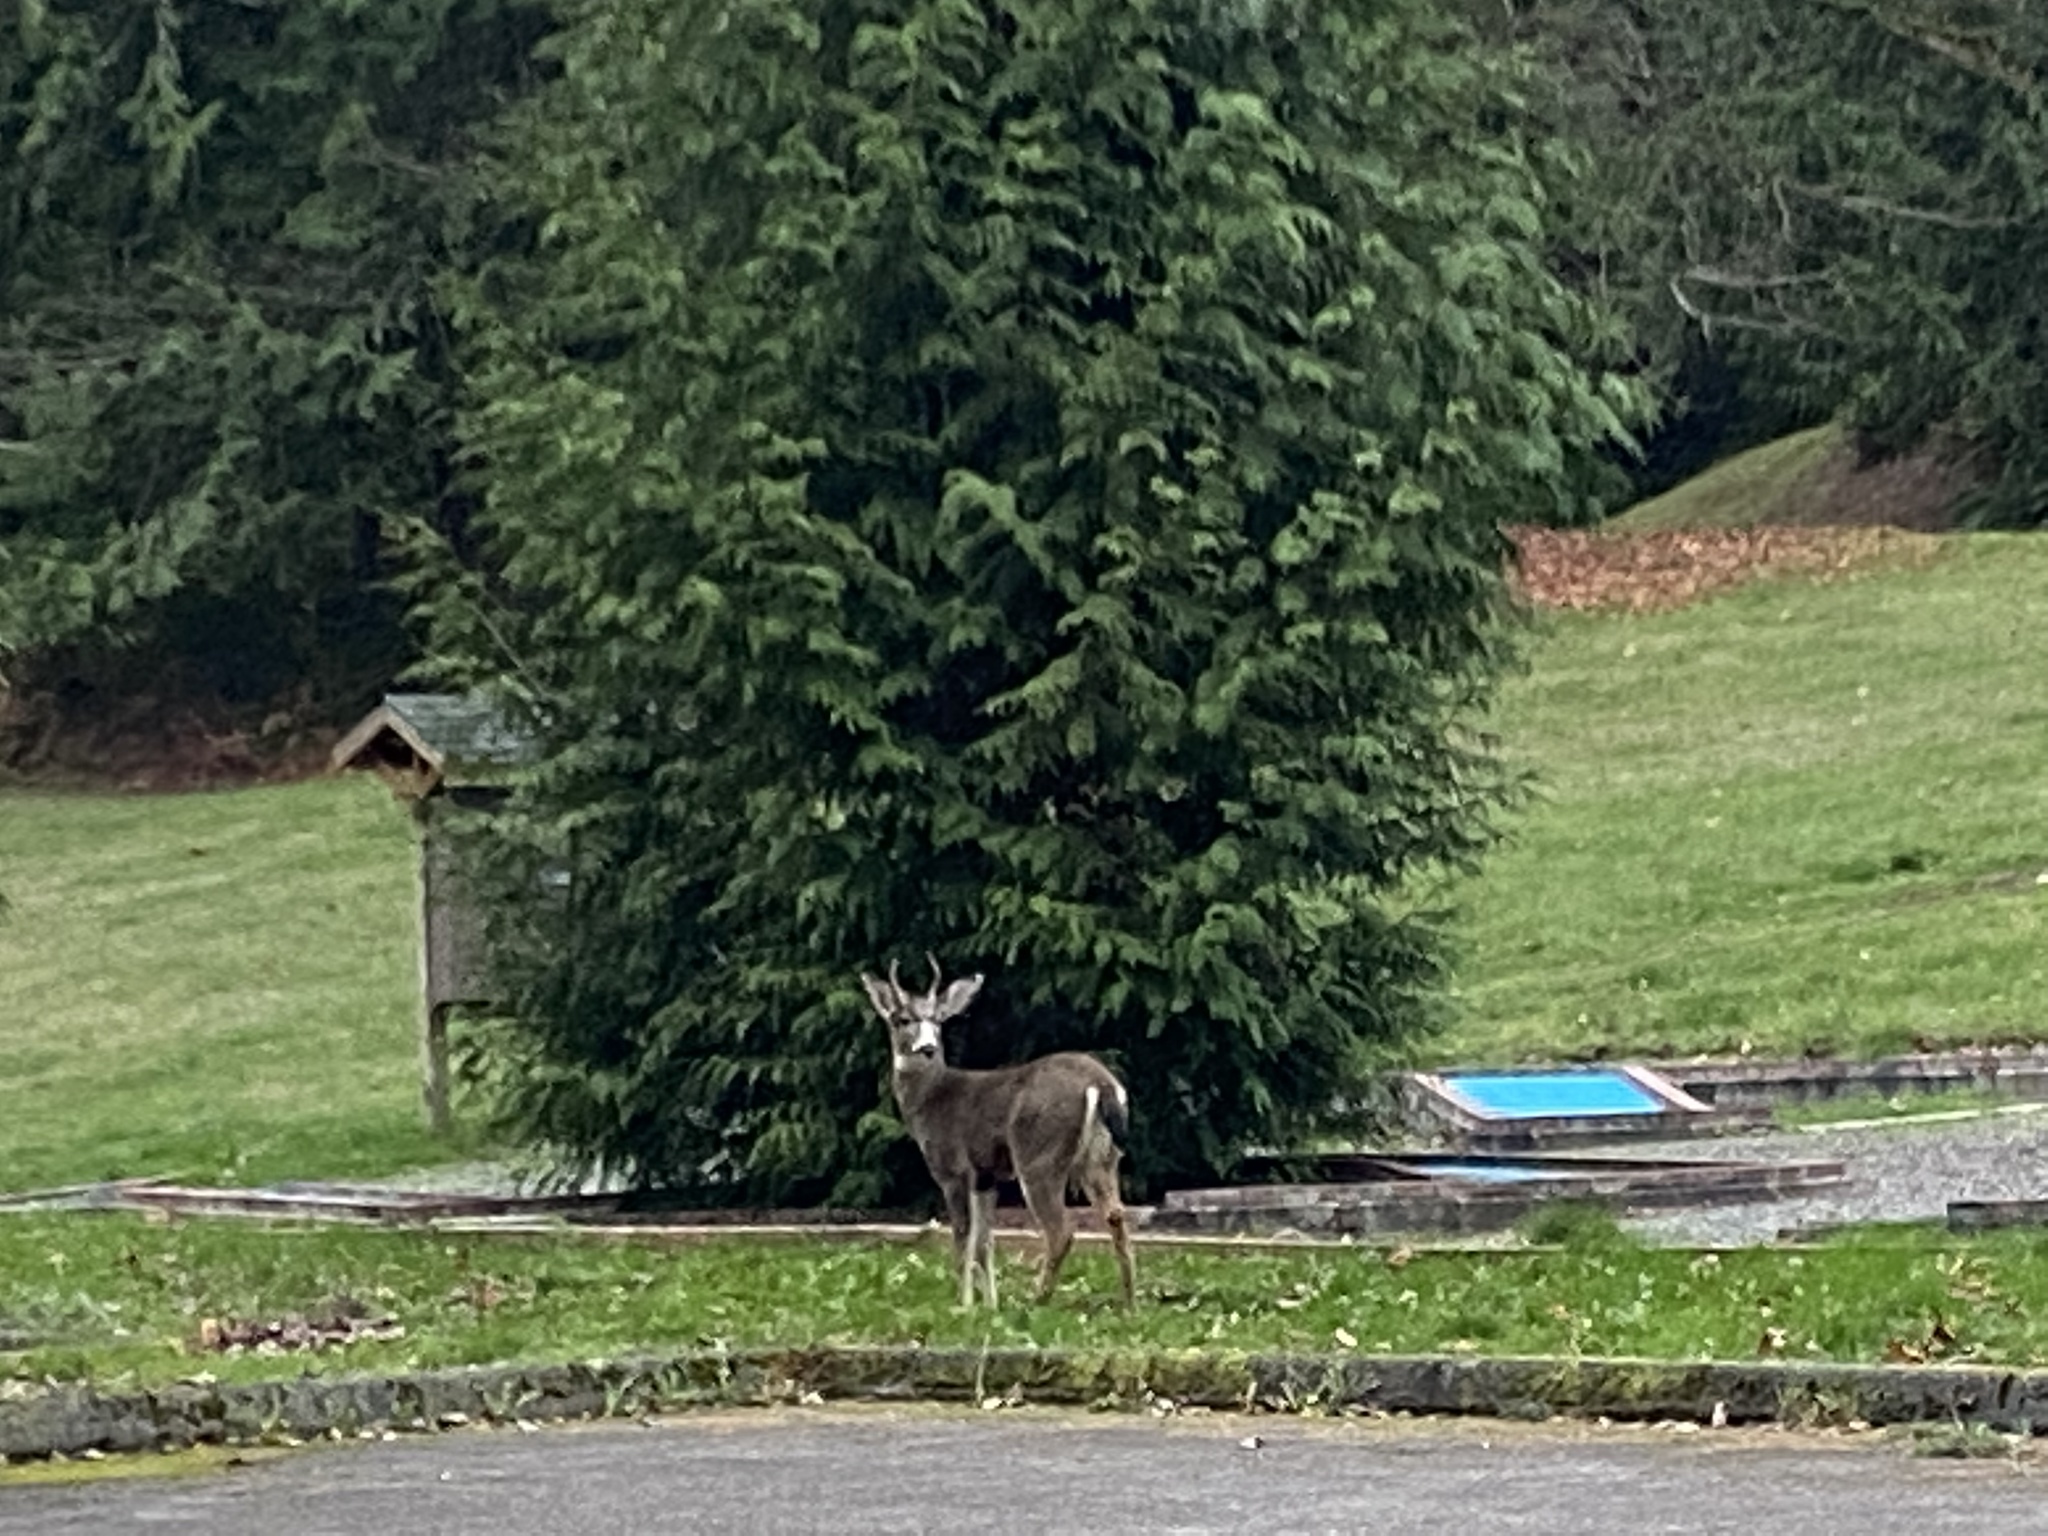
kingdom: Animalia
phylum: Chordata
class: Mammalia
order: Artiodactyla
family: Cervidae
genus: Odocoileus
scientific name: Odocoileus hemionus
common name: Mule deer
